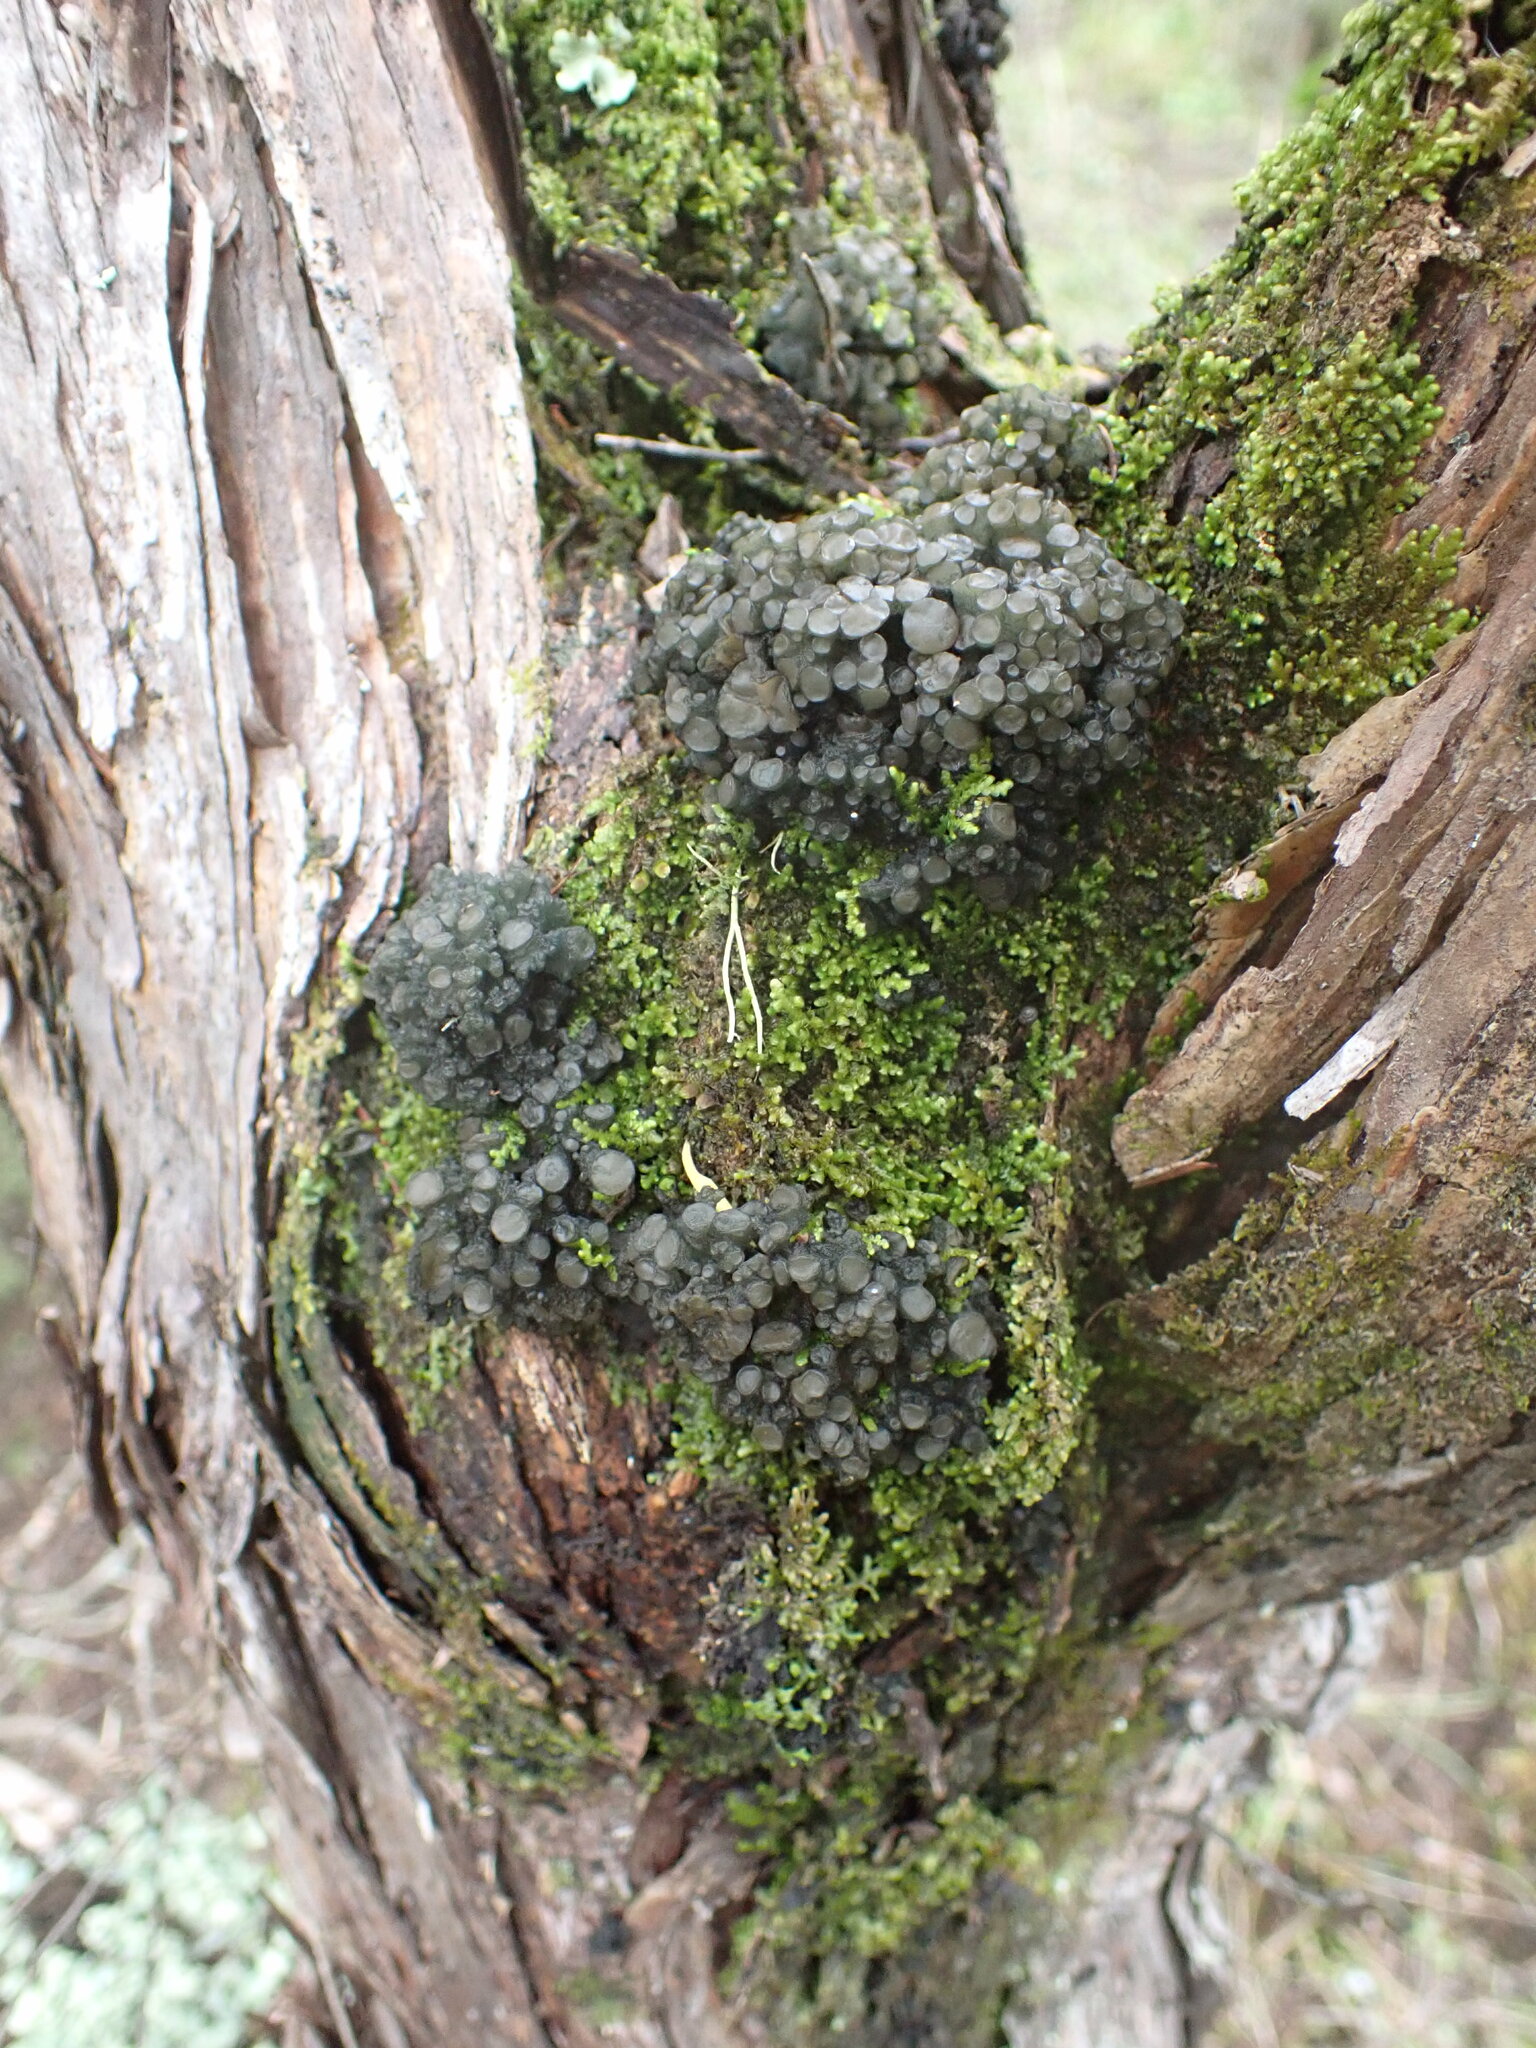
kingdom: Fungi
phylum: Ascomycota
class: Lecanoromycetes
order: Arctomiales
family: Arctomiaceae
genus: Arctomia
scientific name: Arctomia fascicularis
